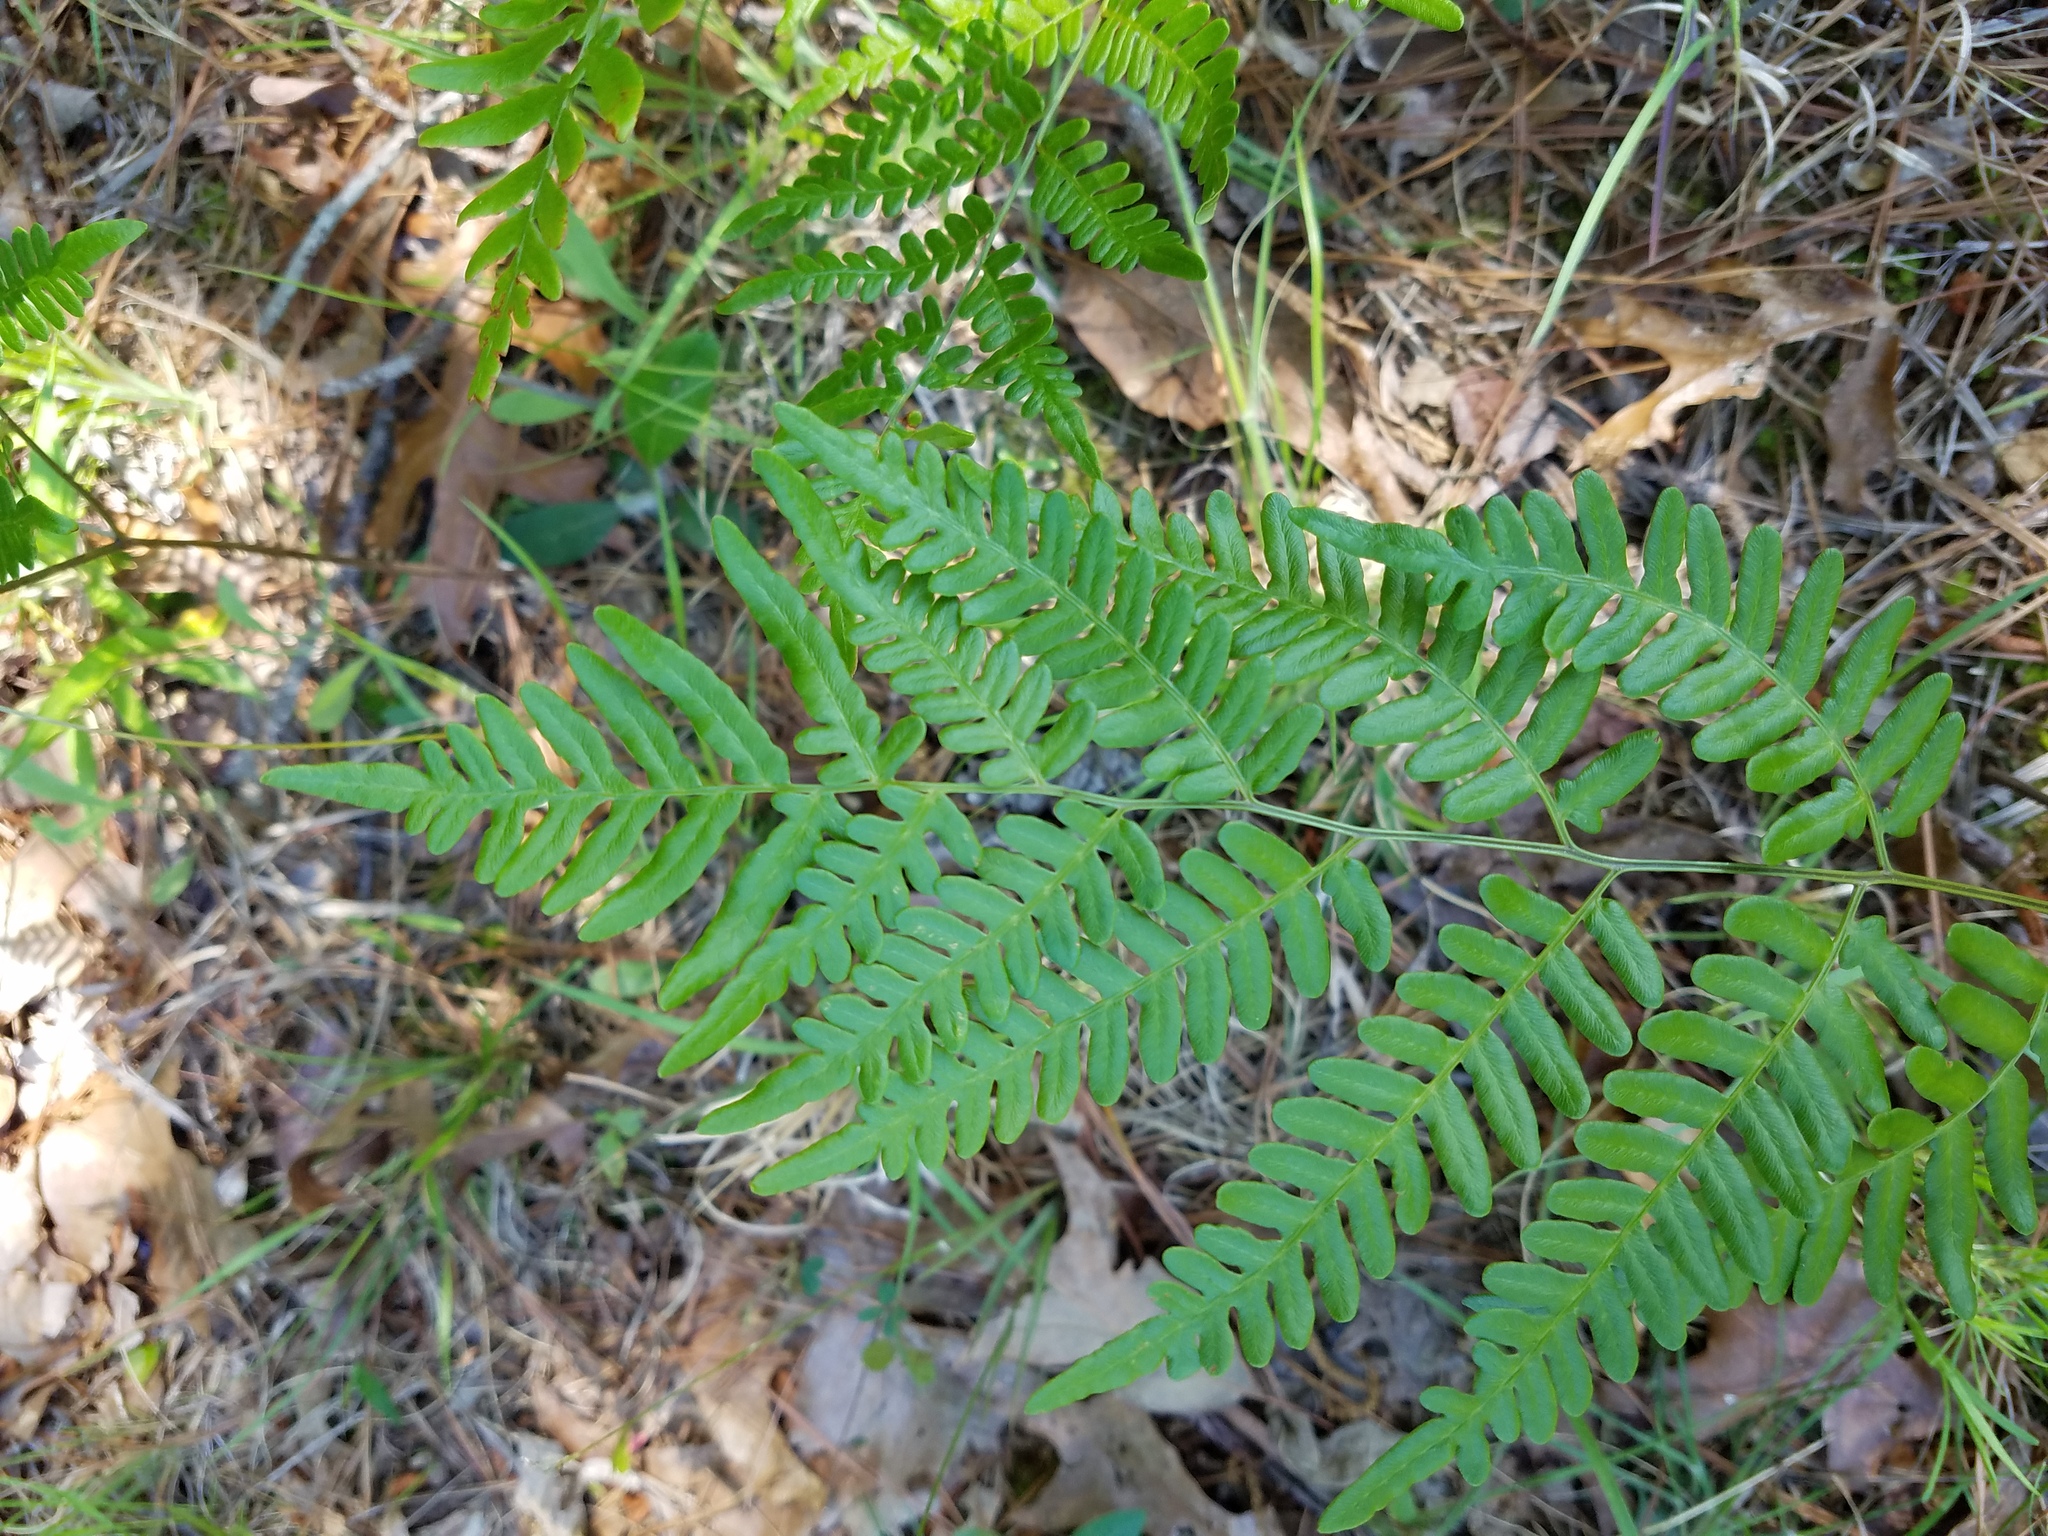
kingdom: Plantae
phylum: Tracheophyta
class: Polypodiopsida
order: Polypodiales
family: Dennstaedtiaceae
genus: Pteridium
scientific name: Pteridium aquilinum
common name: Bracken
